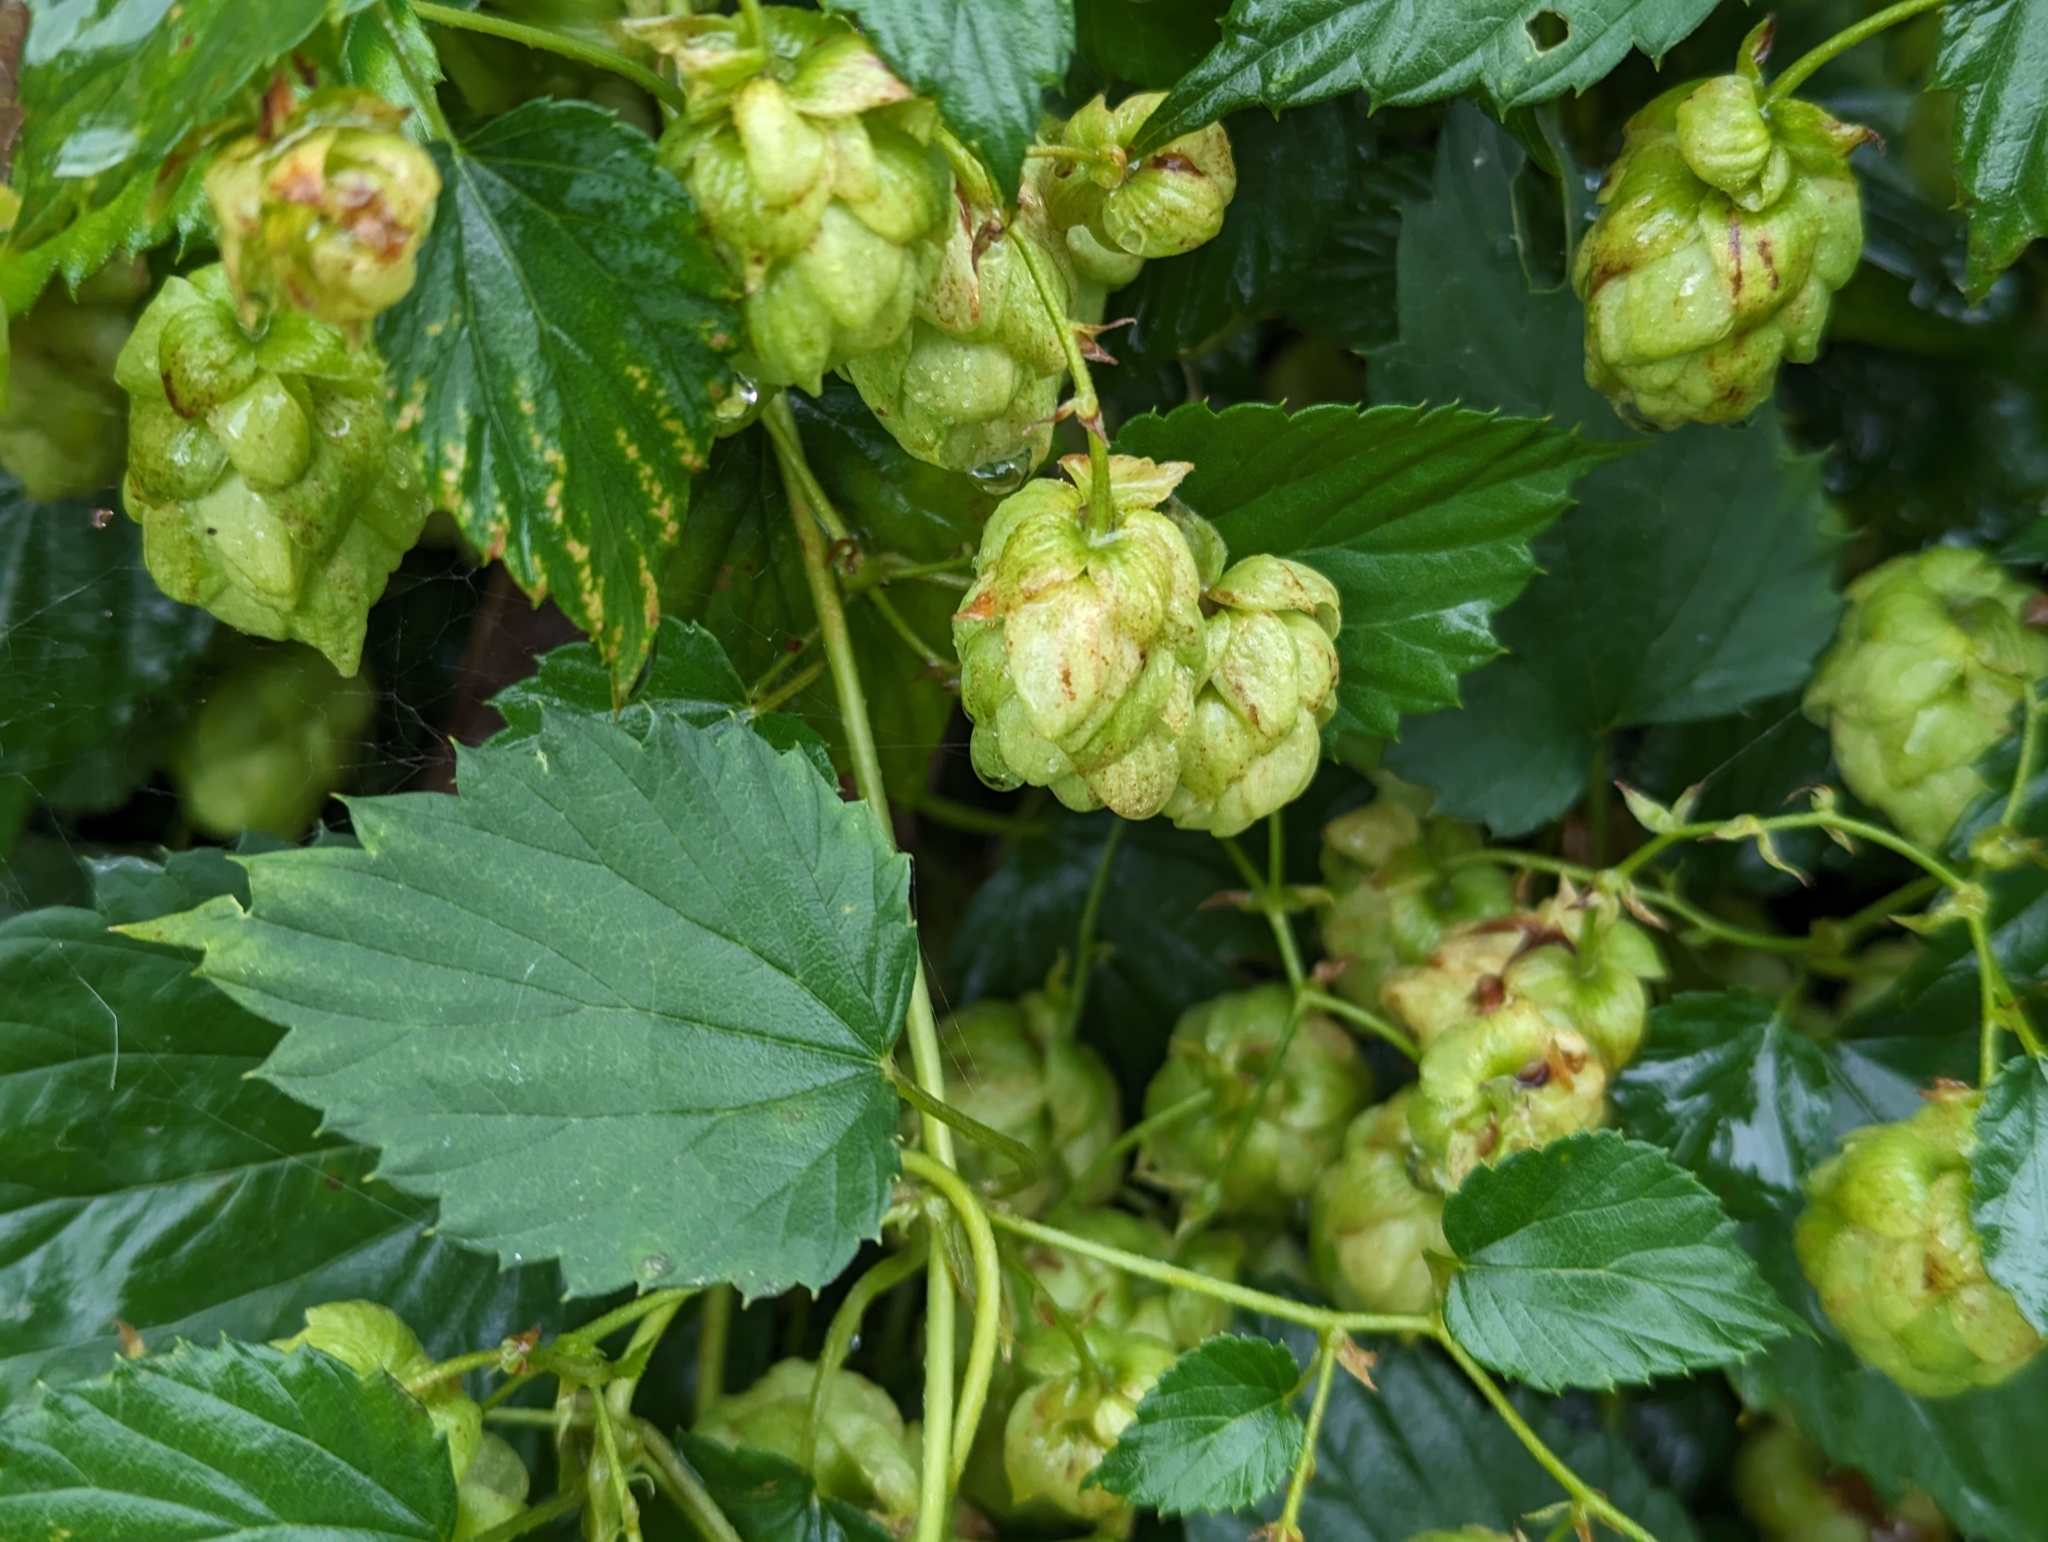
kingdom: Plantae
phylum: Tracheophyta
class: Magnoliopsida
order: Rosales
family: Cannabaceae
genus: Humulus
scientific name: Humulus lupulus
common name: Hop
